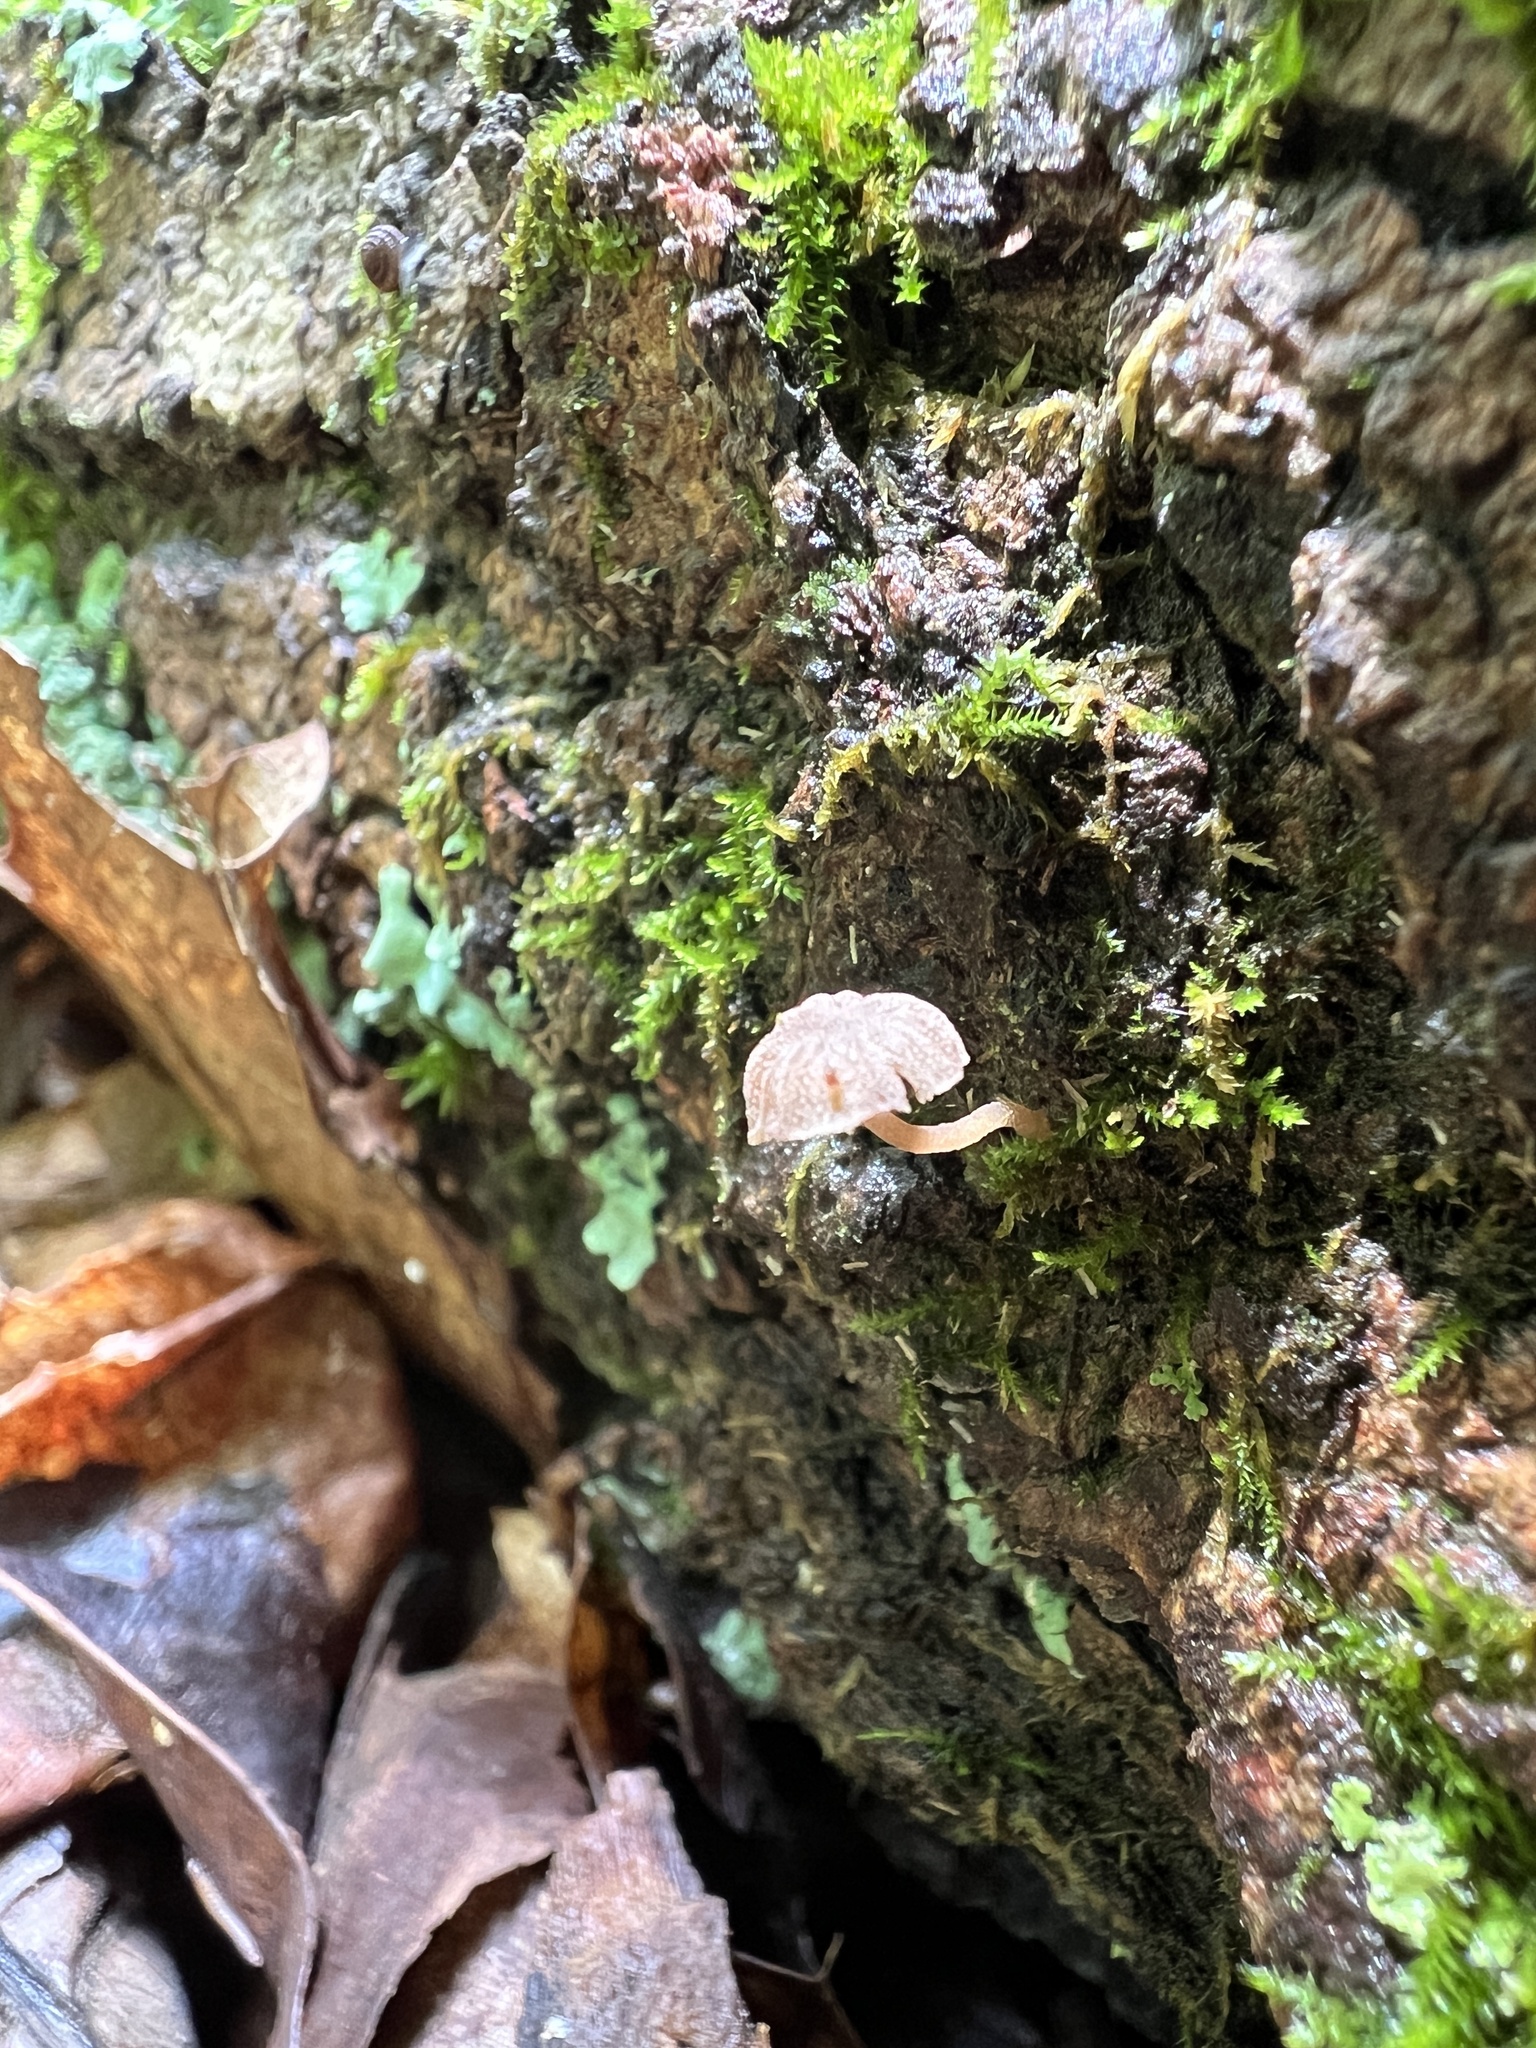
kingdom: Fungi
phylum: Basidiomycota
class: Agaricomycetes
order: Agaricales
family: Mycenaceae
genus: Mycena
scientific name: Mycena meliigena
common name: Mauve bonnet
